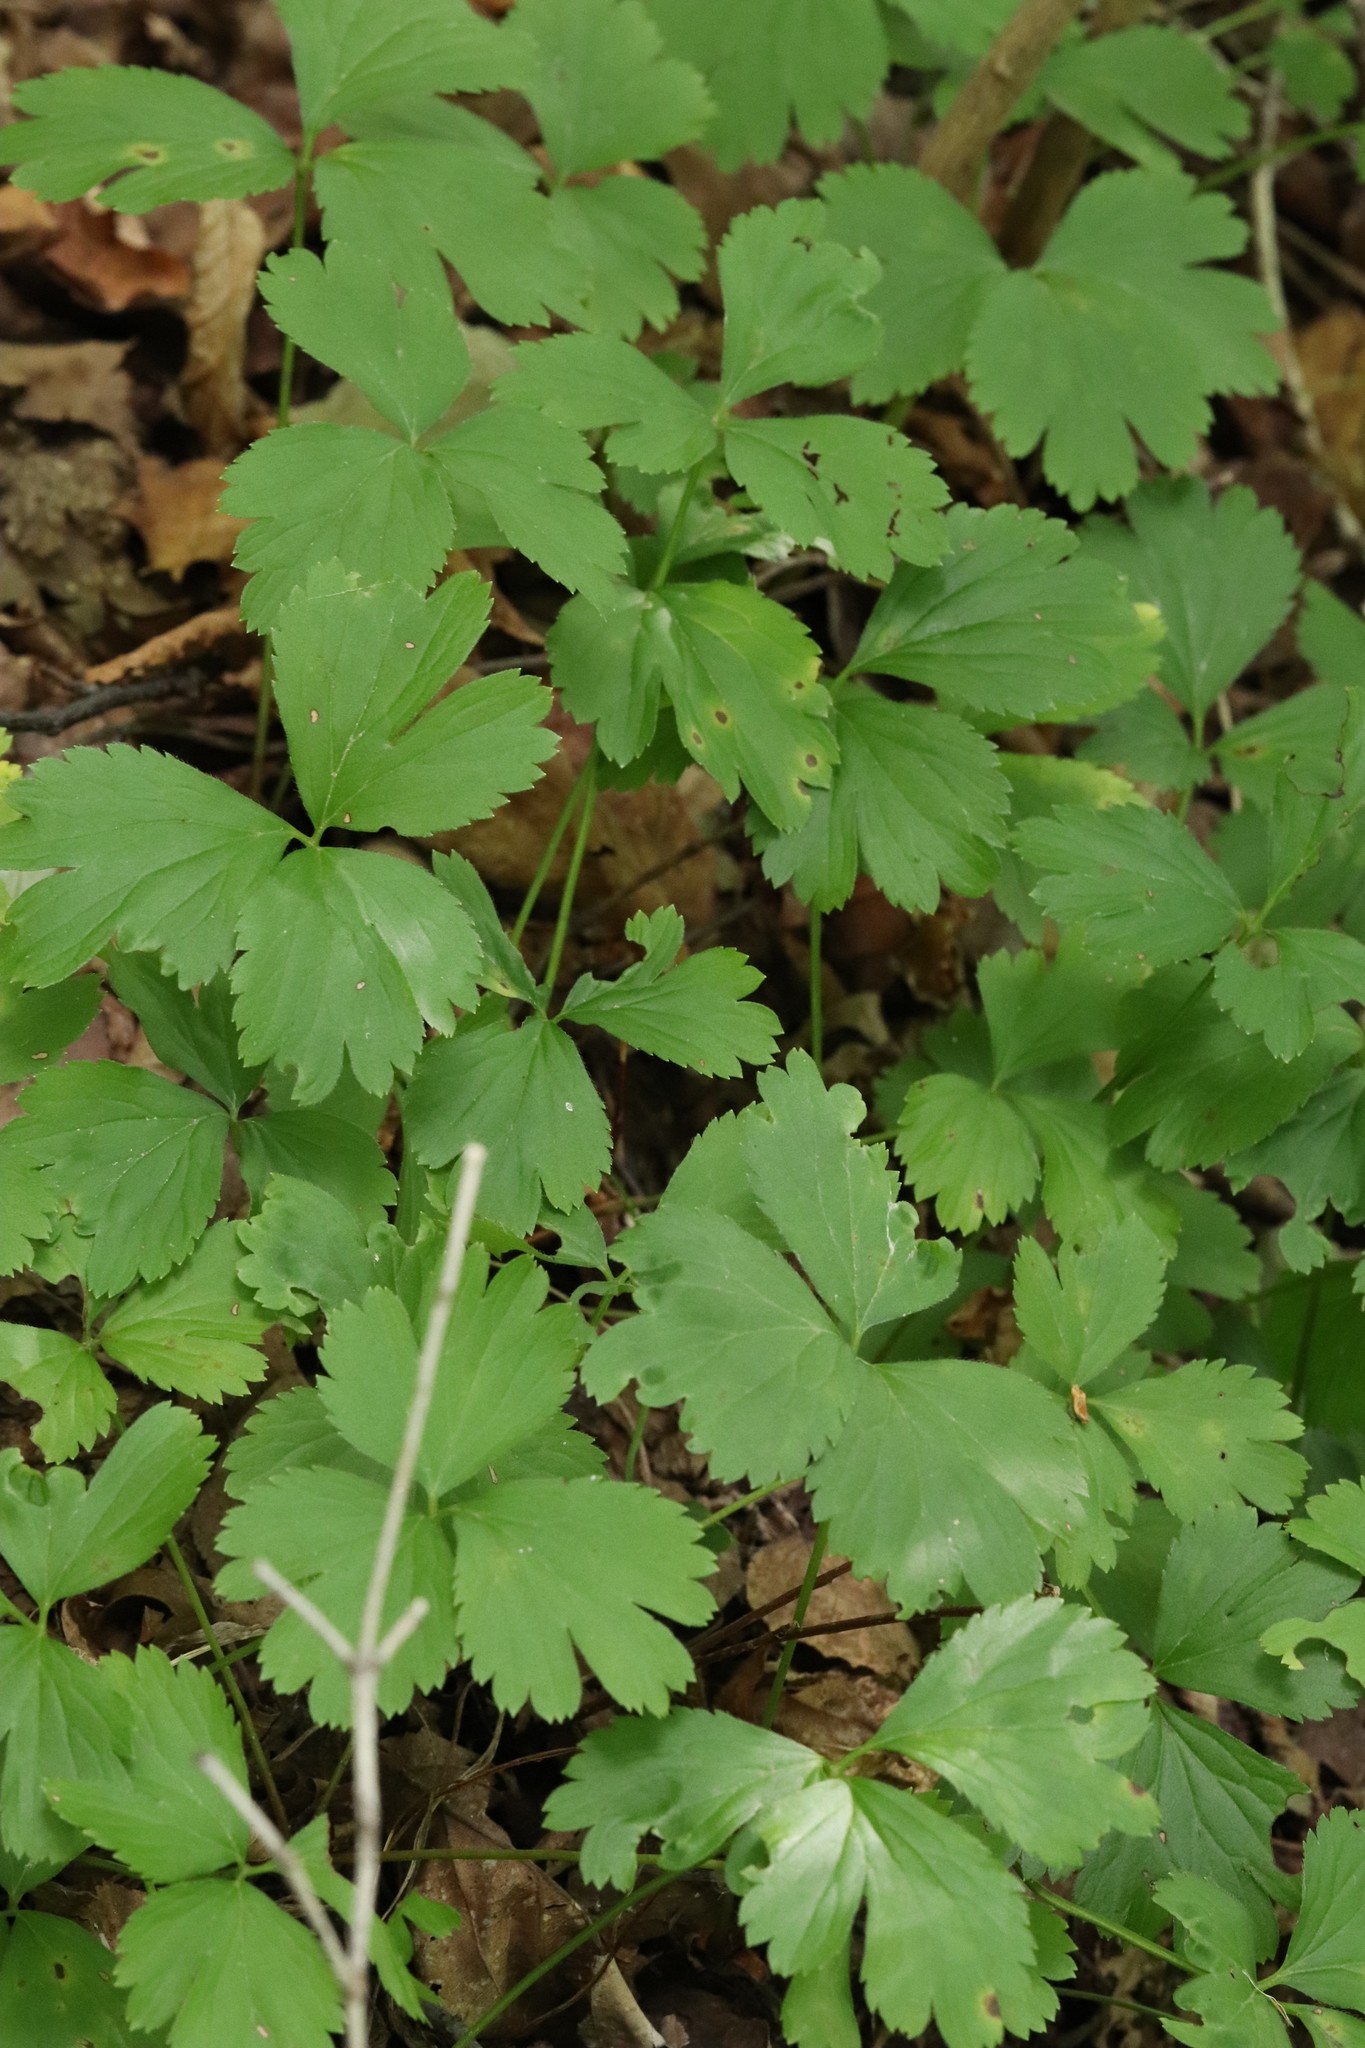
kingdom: Plantae
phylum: Tracheophyta
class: Magnoliopsida
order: Rosales
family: Rosaceae
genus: Geum
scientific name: Geum ternatum
